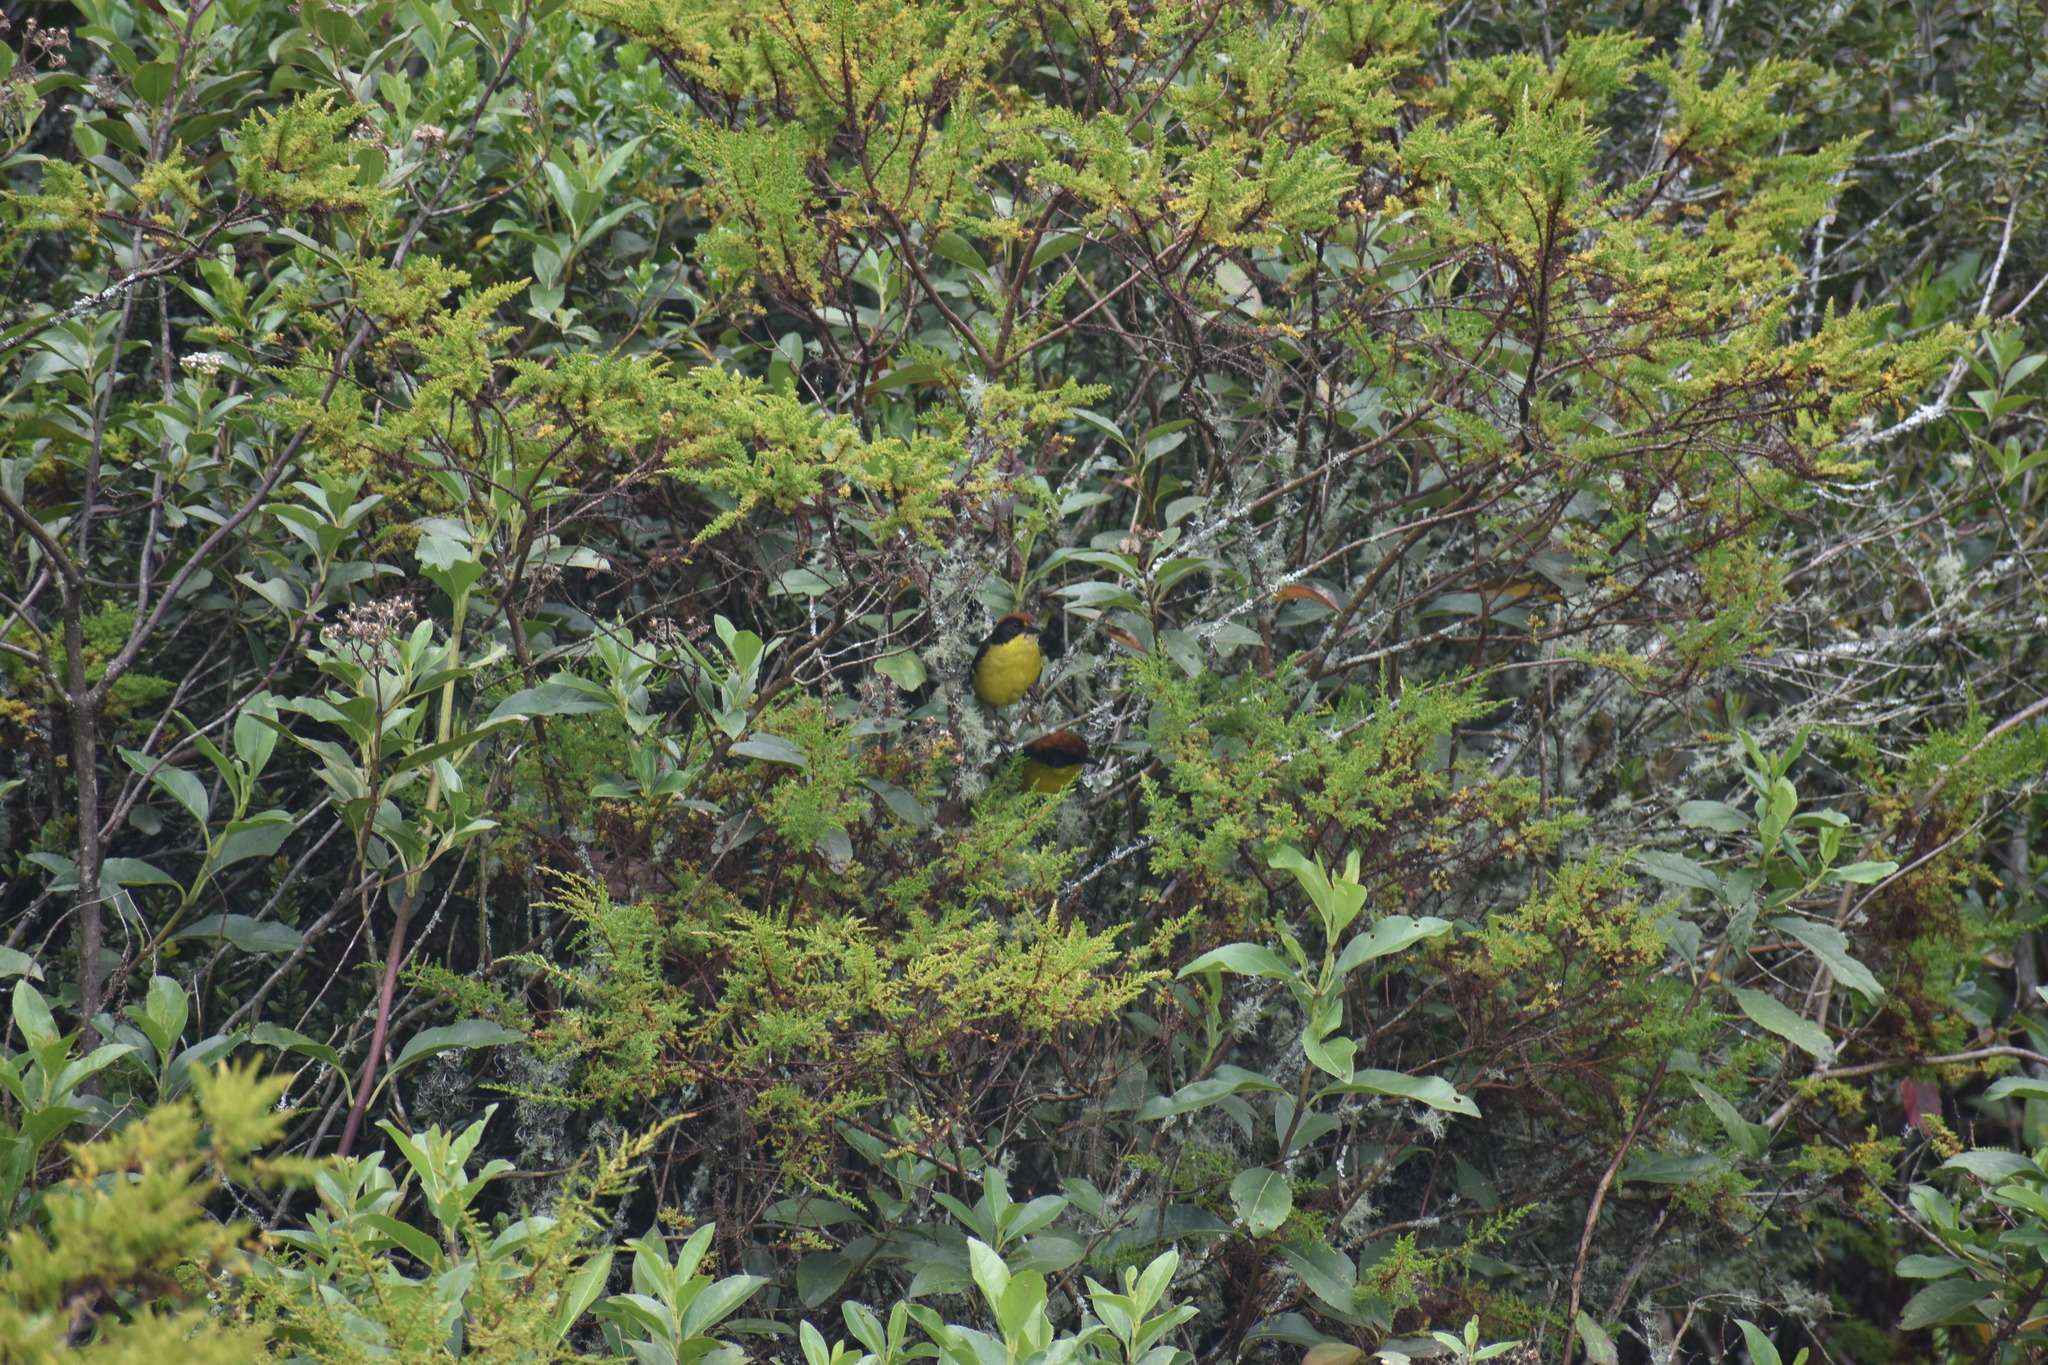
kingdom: Animalia
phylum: Chordata
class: Aves
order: Passeriformes
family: Passerellidae
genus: Atlapetes
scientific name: Atlapetes latinuchus
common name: Yellow-breasted brushfinch
